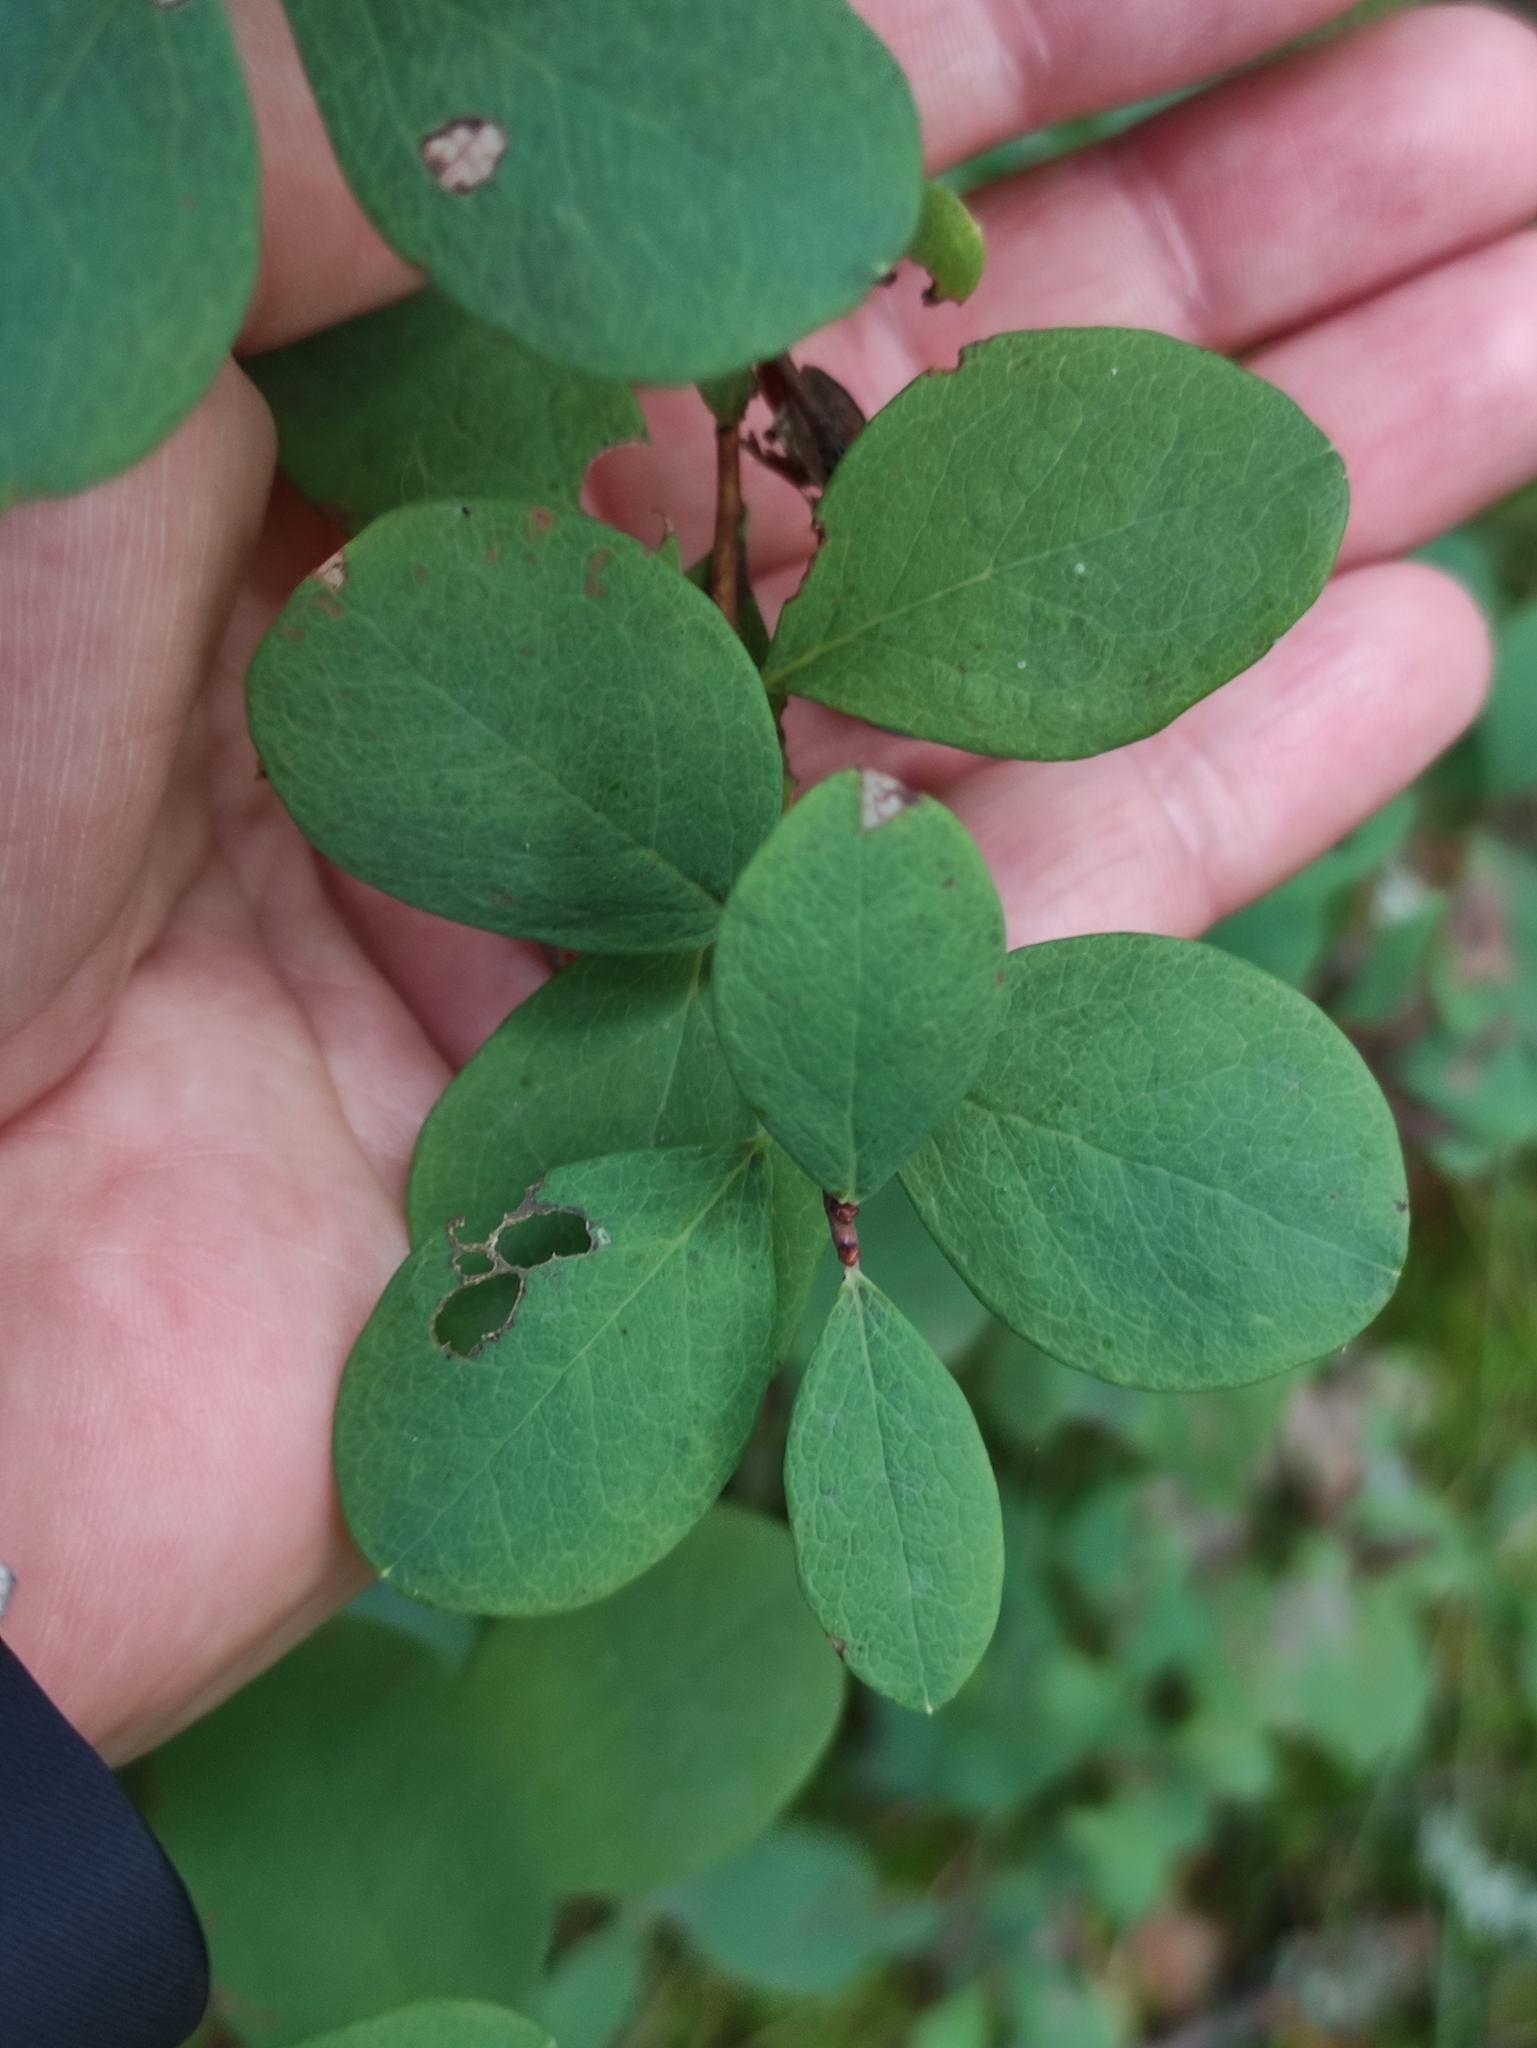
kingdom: Plantae
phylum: Tracheophyta
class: Magnoliopsida
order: Ericales
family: Ericaceae
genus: Vaccinium
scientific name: Vaccinium uliginosum
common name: Bog bilberry
